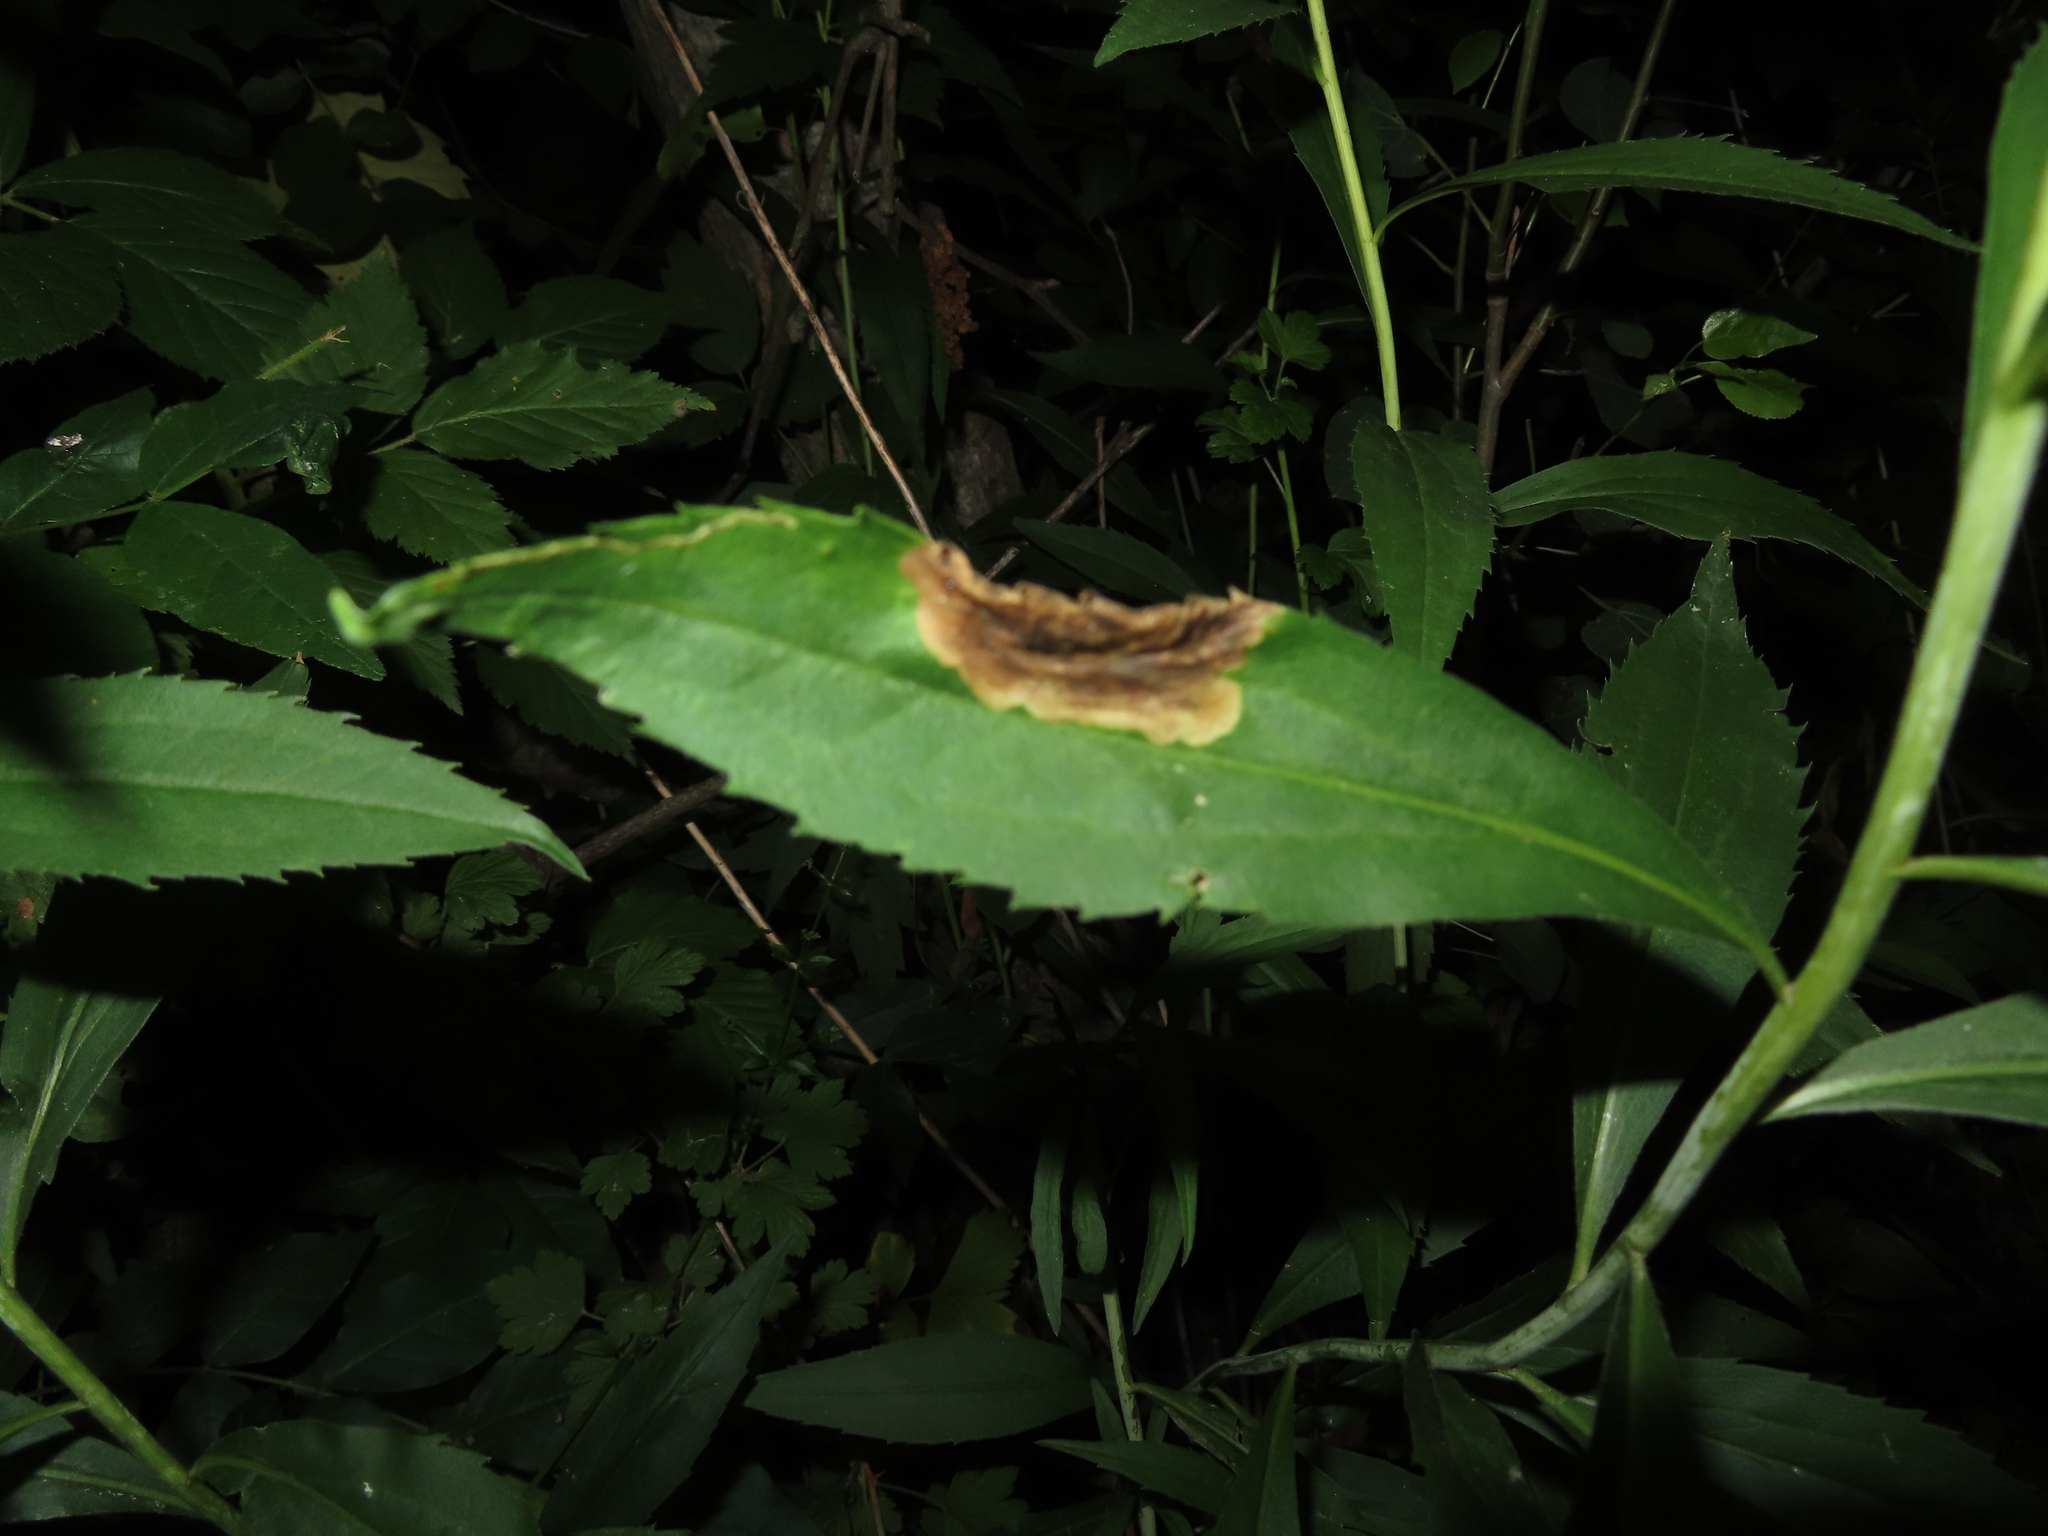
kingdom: Animalia
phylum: Arthropoda
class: Insecta
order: Diptera
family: Agromyzidae
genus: Nemorimyza
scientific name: Nemorimyza posticata
